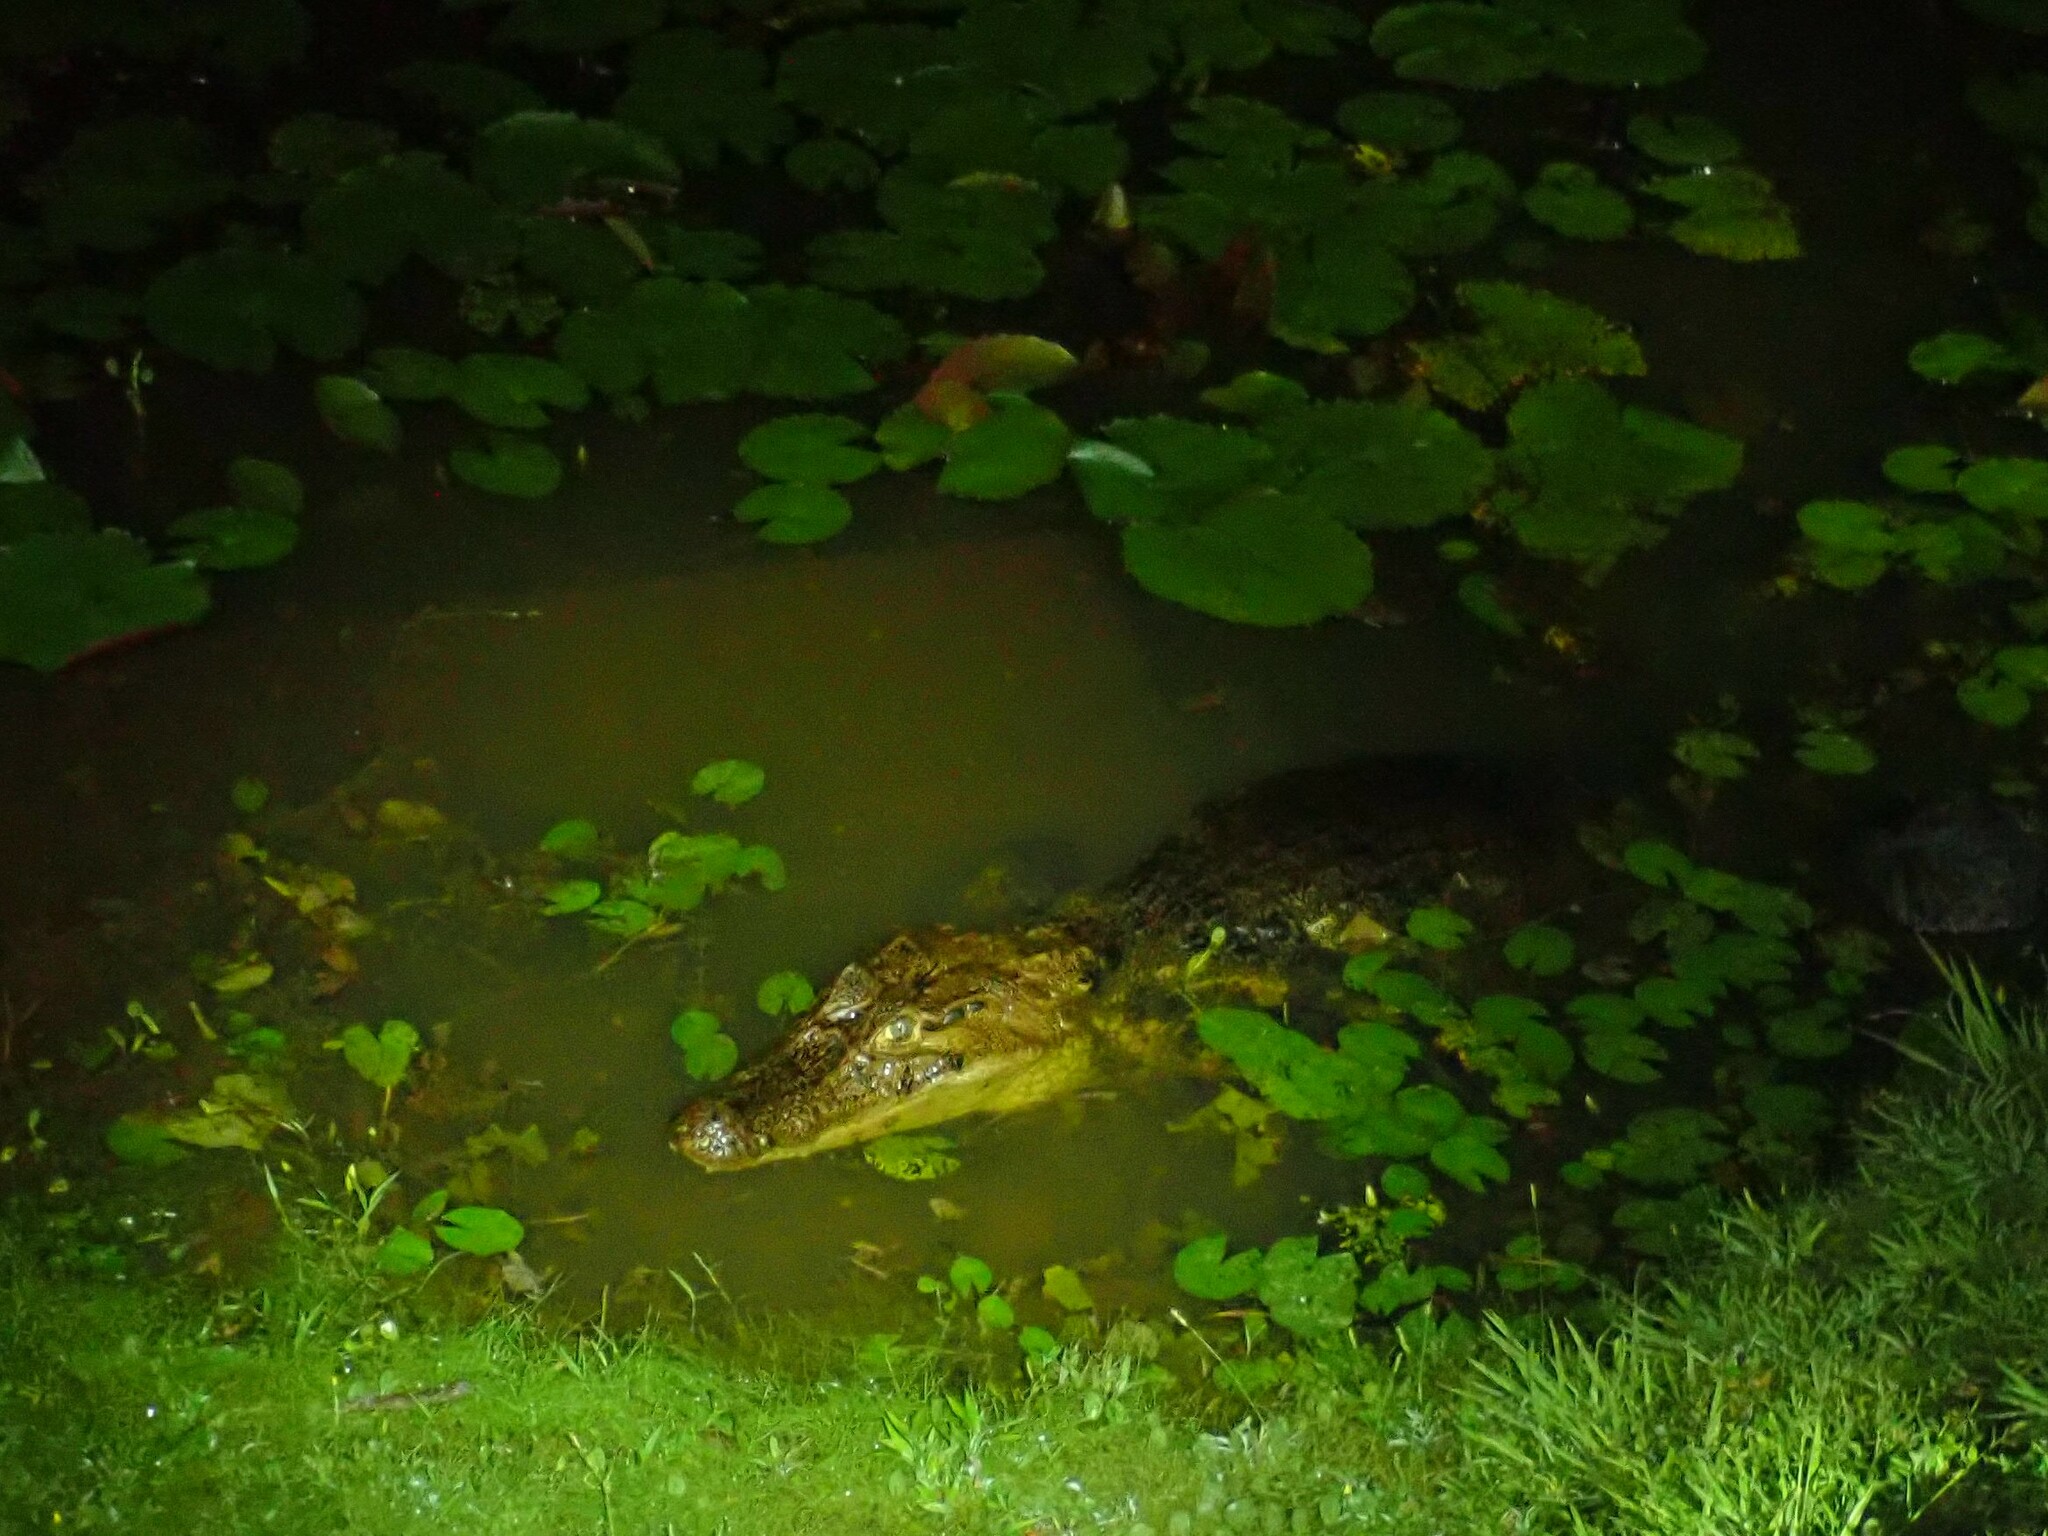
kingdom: Animalia
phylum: Chordata
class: Crocodylia
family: Alligatoridae
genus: Caiman
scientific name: Caiman crocodilus
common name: Common caiman
